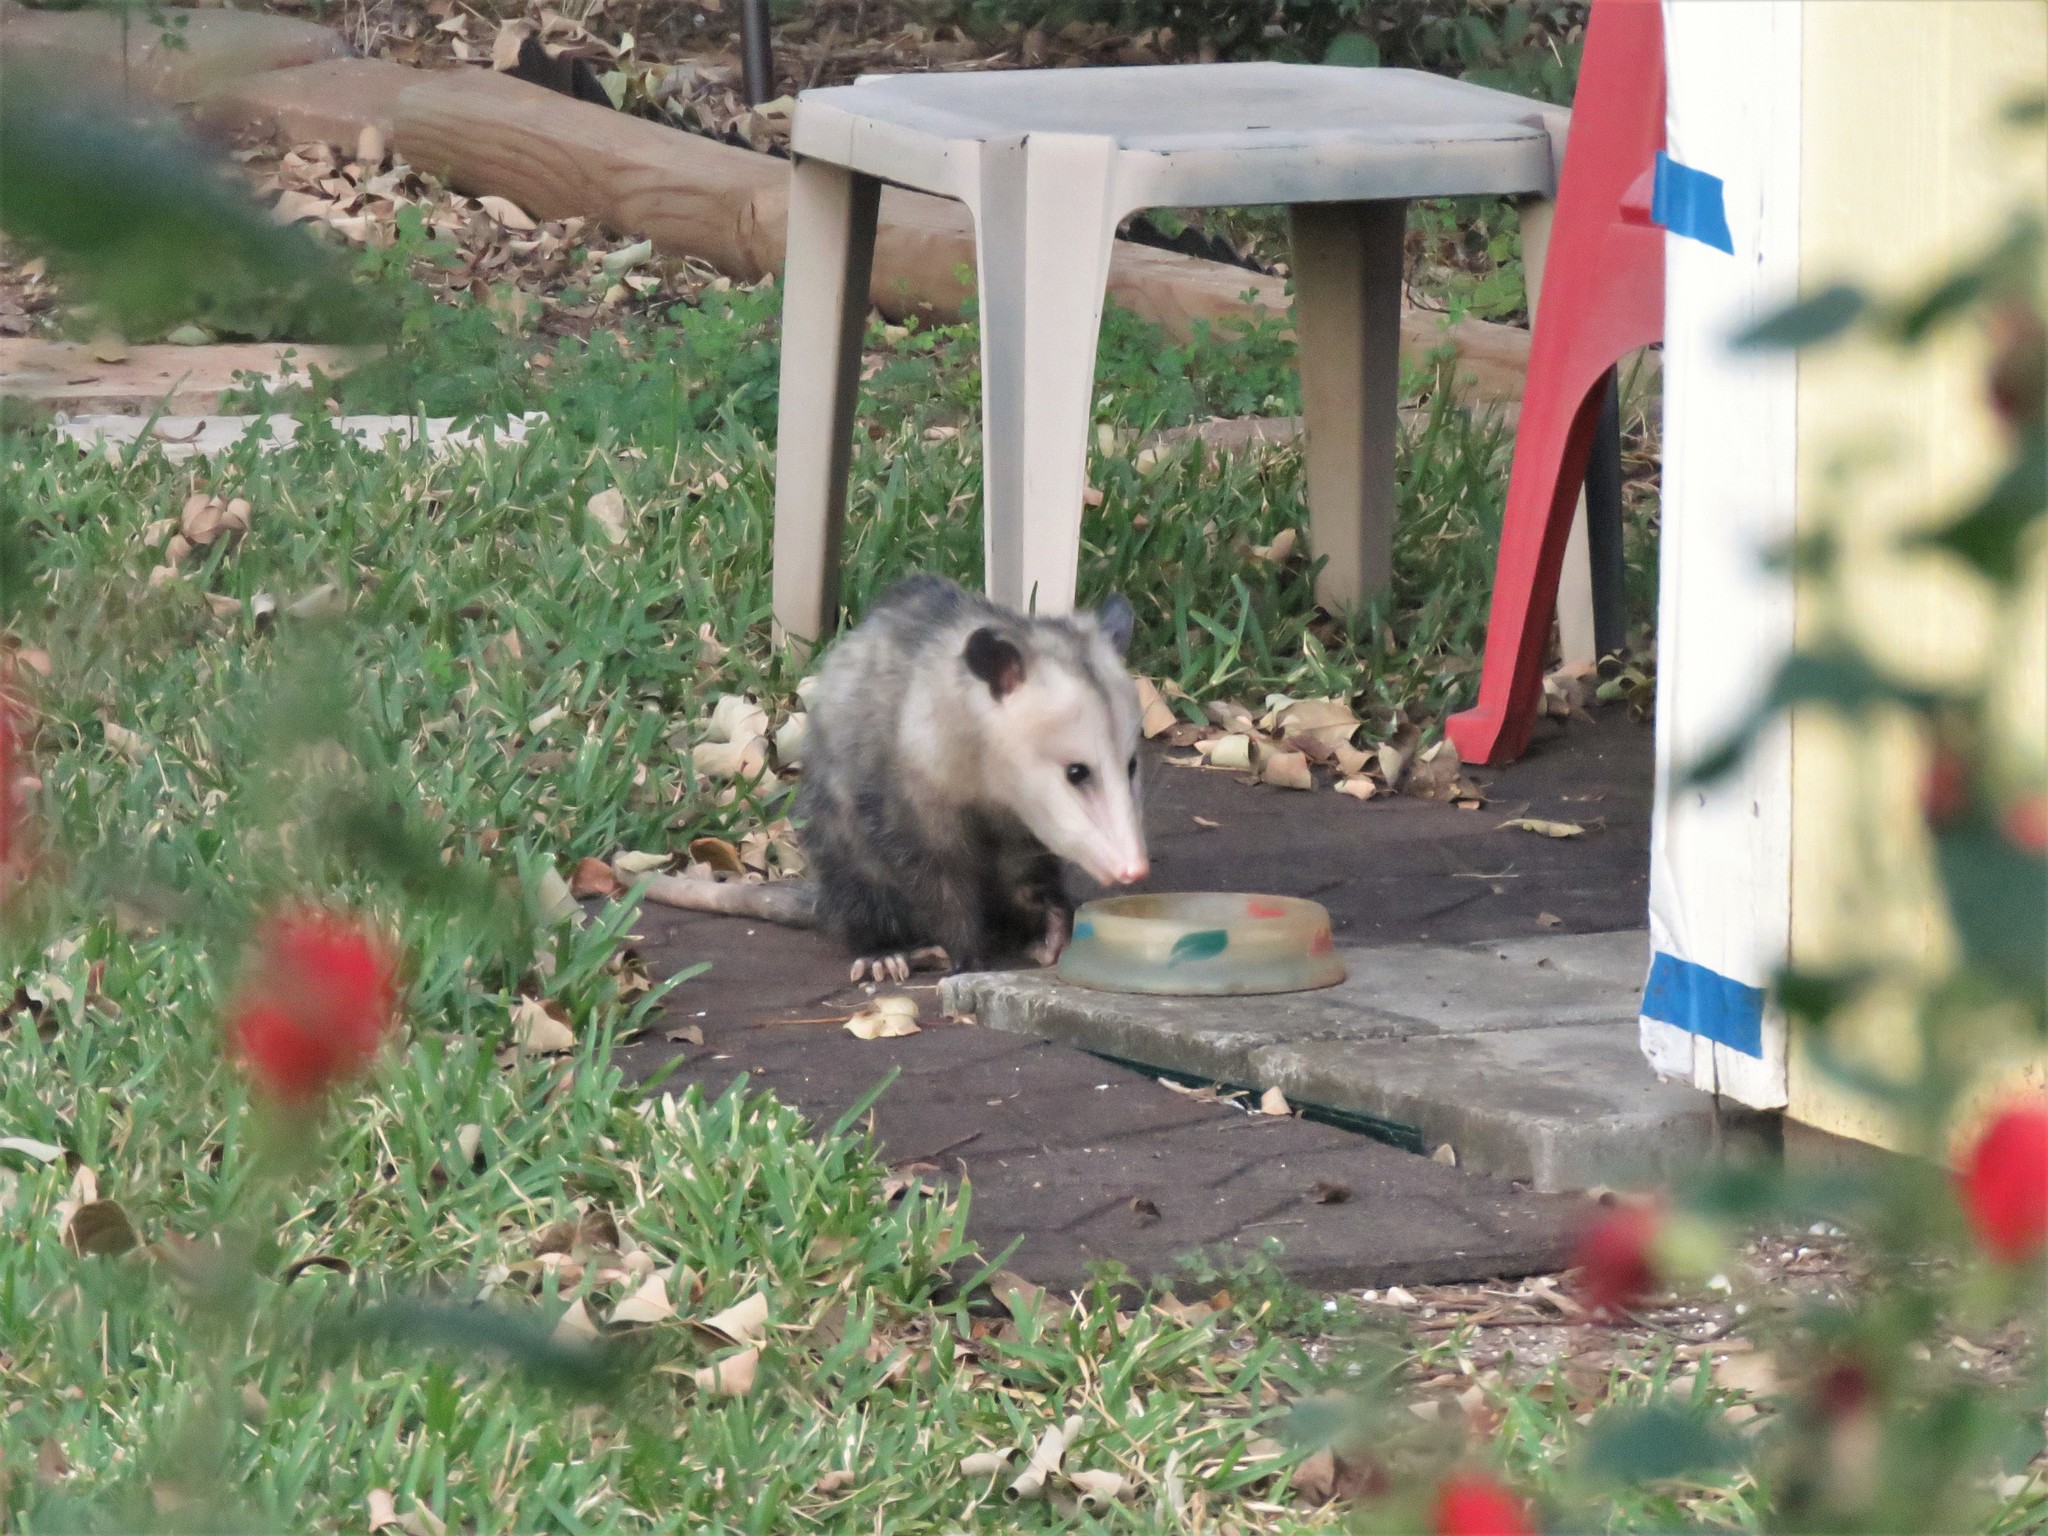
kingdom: Animalia
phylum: Chordata
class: Mammalia
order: Didelphimorphia
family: Didelphidae
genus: Didelphis
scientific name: Didelphis virginiana
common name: Virginia opossum
